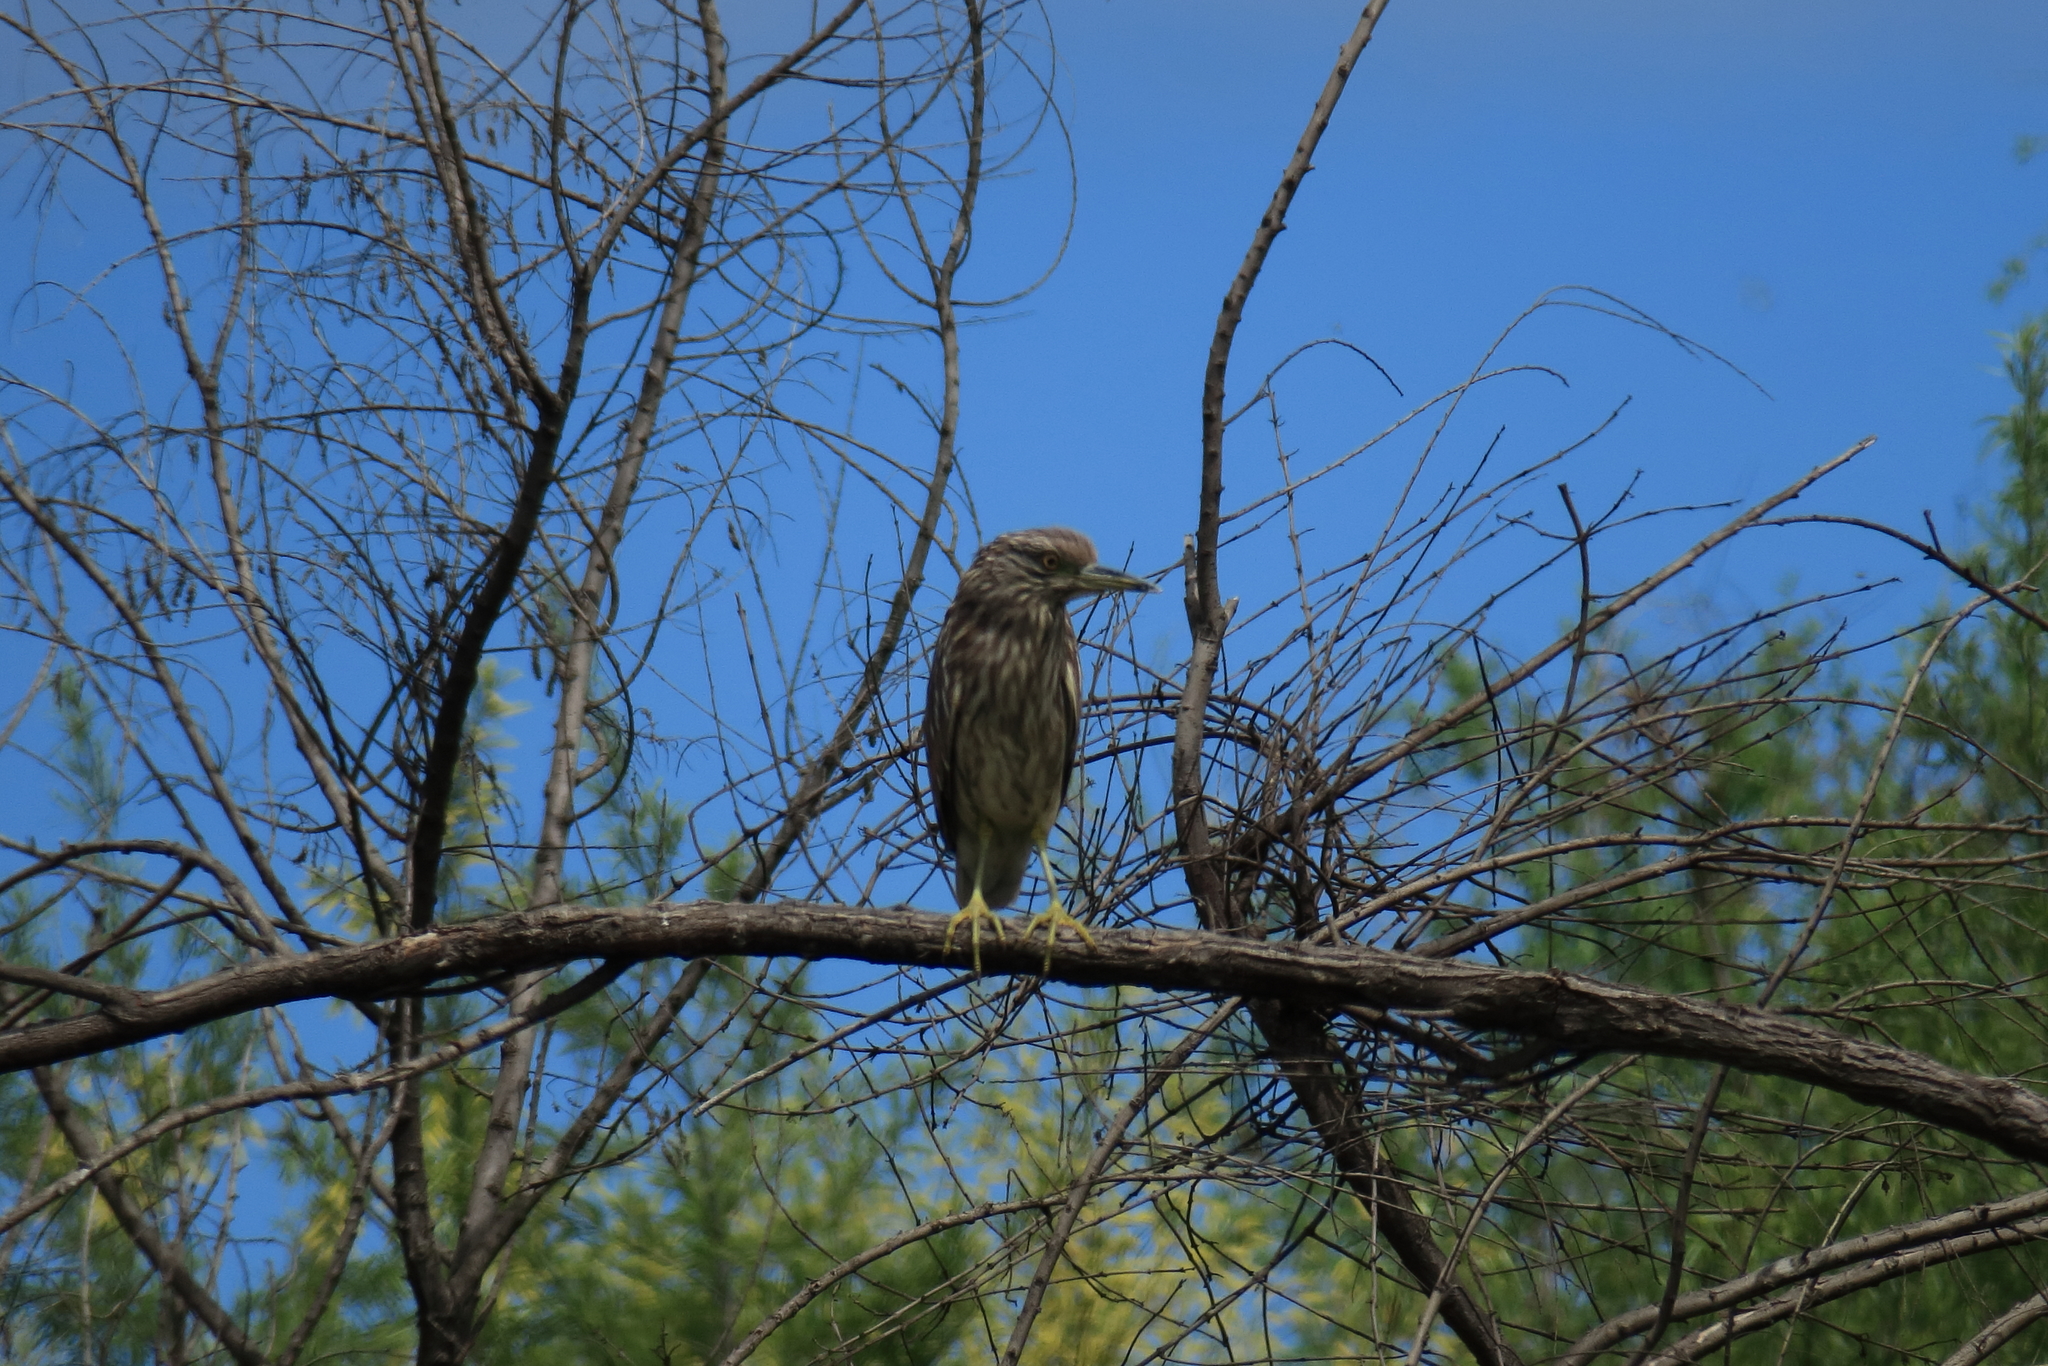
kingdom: Animalia
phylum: Chordata
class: Aves
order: Pelecaniformes
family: Ardeidae
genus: Nycticorax
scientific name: Nycticorax nycticorax
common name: Black-crowned night heron
